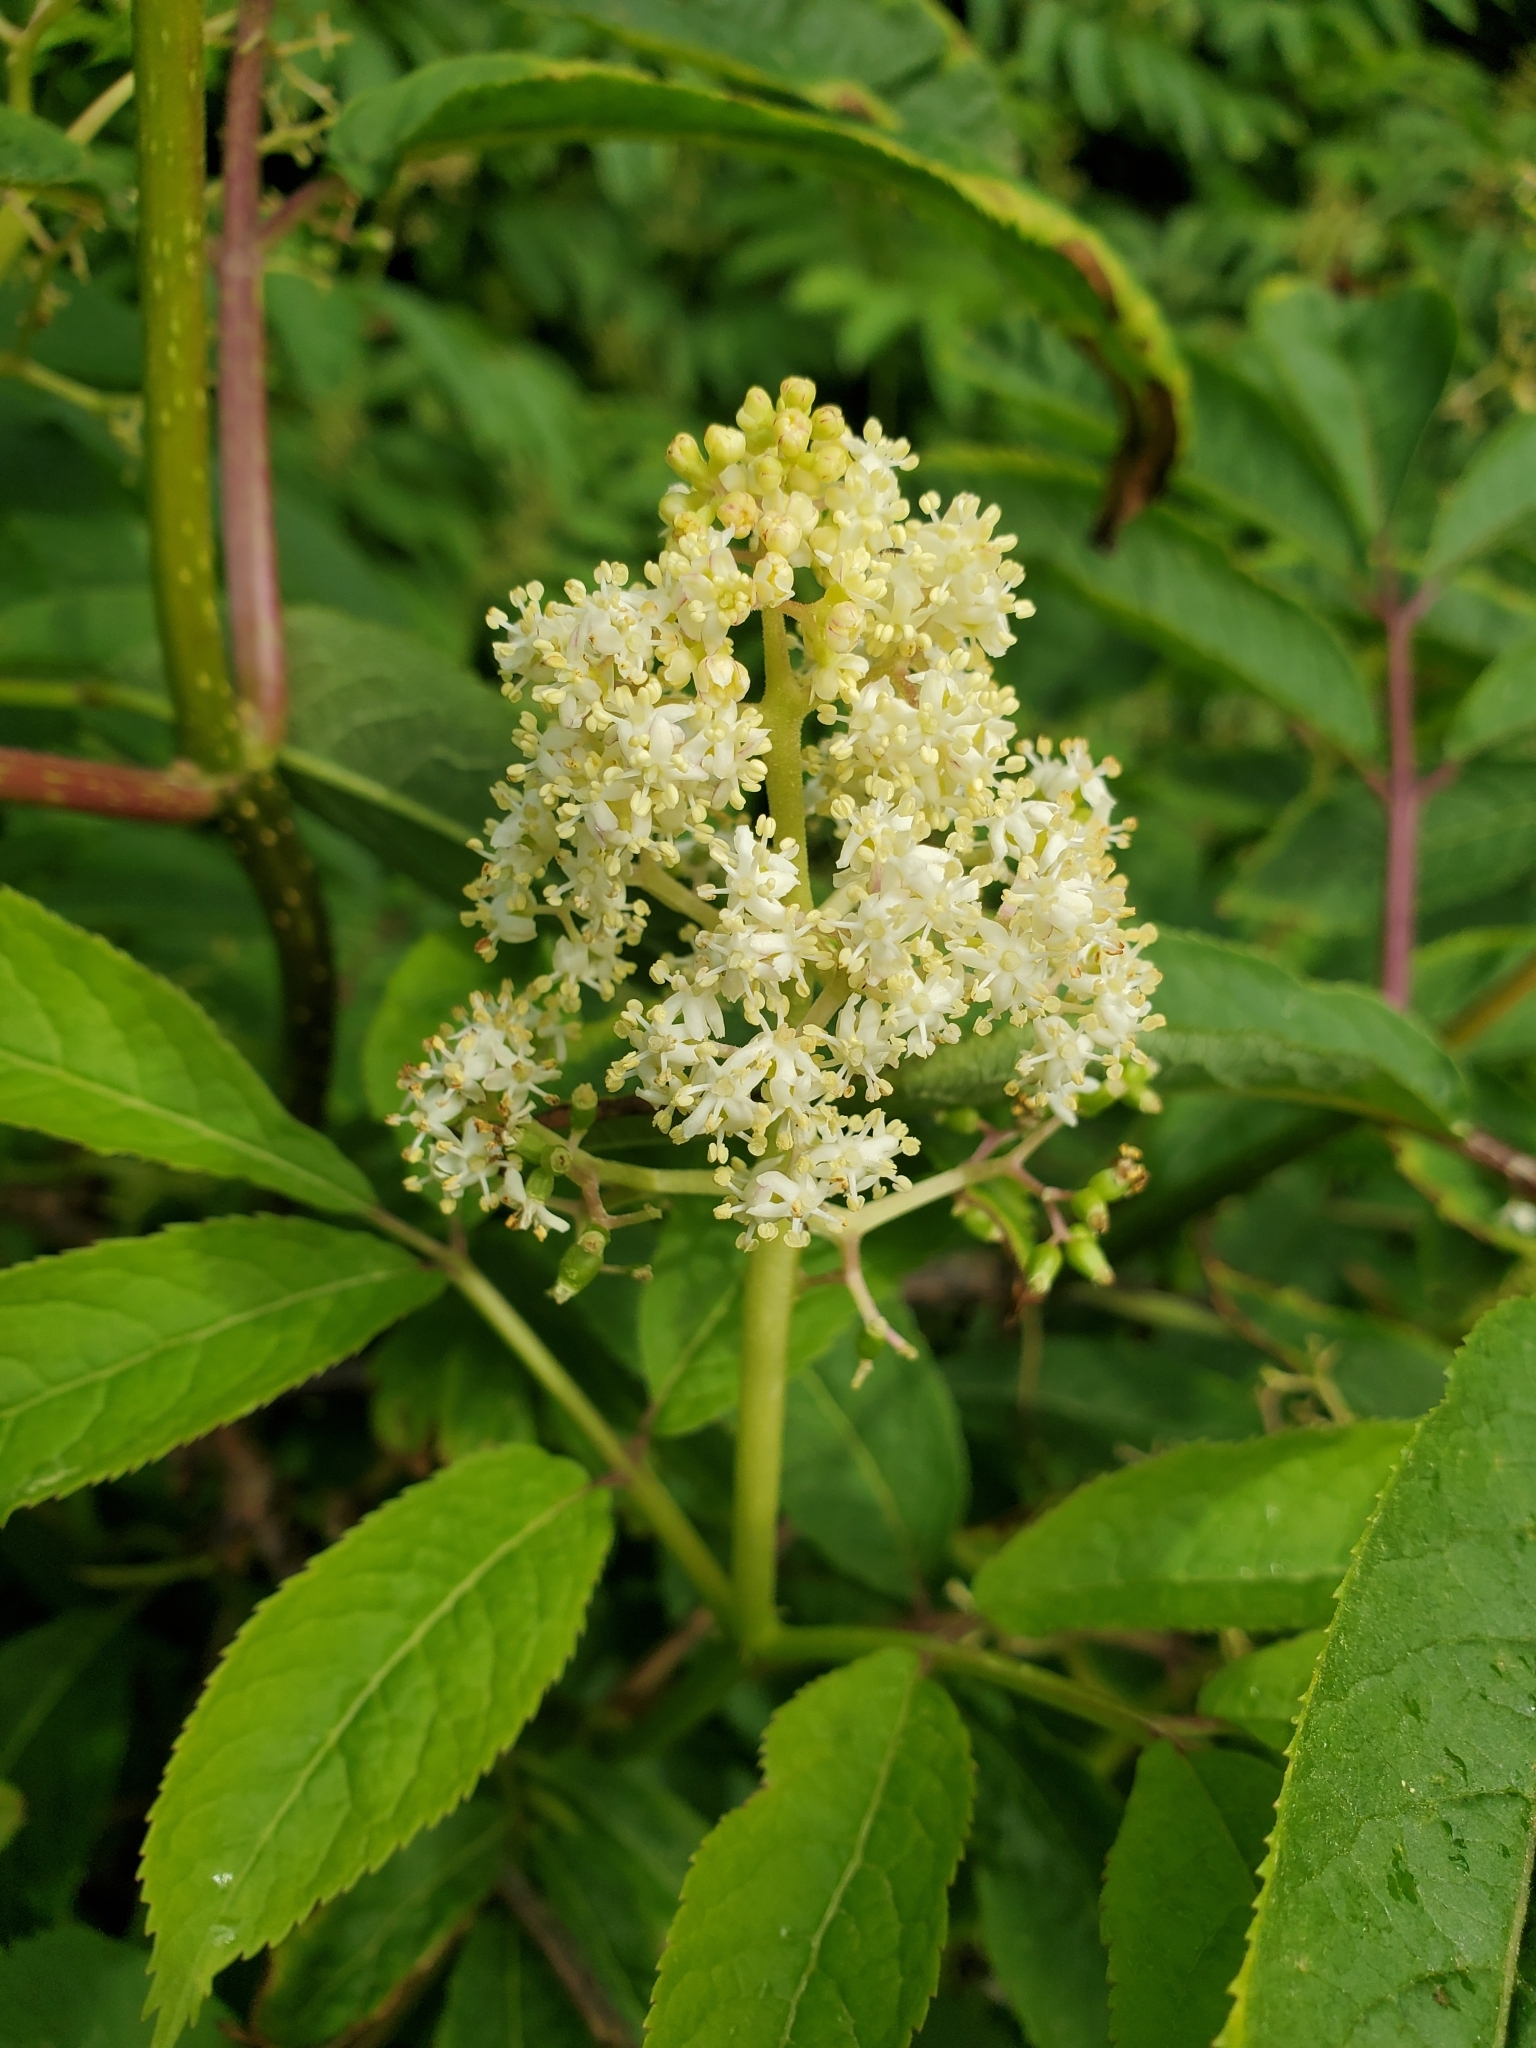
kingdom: Plantae
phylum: Tracheophyta
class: Magnoliopsida
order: Dipsacales
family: Viburnaceae
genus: Sambucus
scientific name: Sambucus racemosa
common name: Red-berried elder
